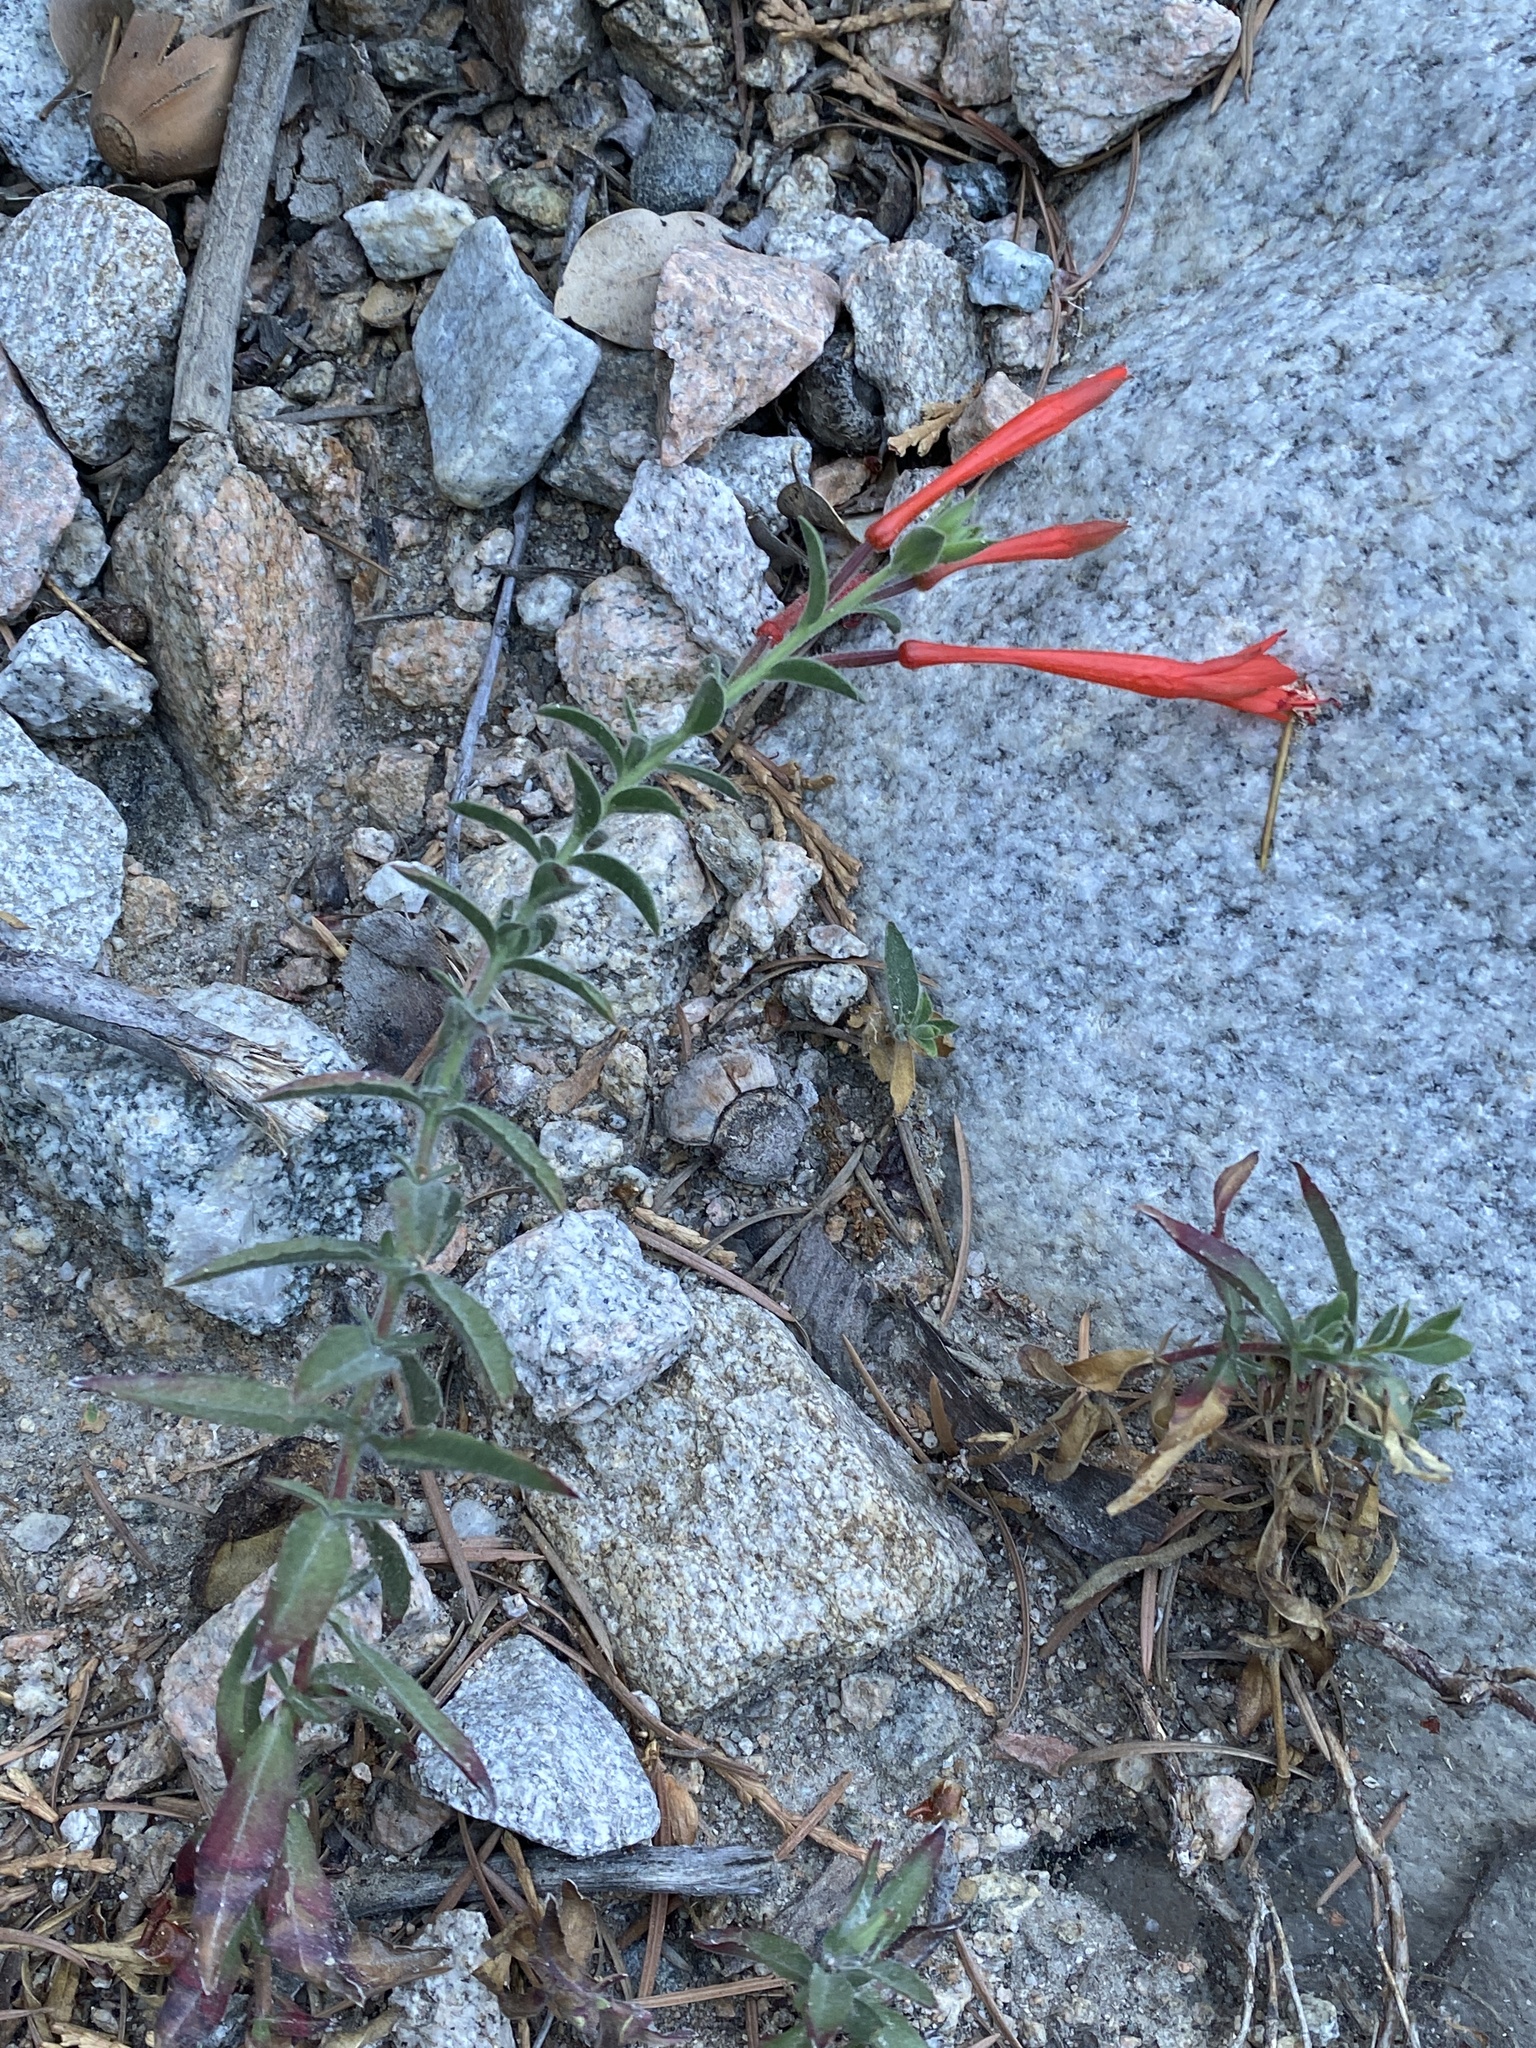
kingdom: Plantae
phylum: Tracheophyta
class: Magnoliopsida
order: Myrtales
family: Onagraceae
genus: Epilobium
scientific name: Epilobium canum
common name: California-fuchsia
